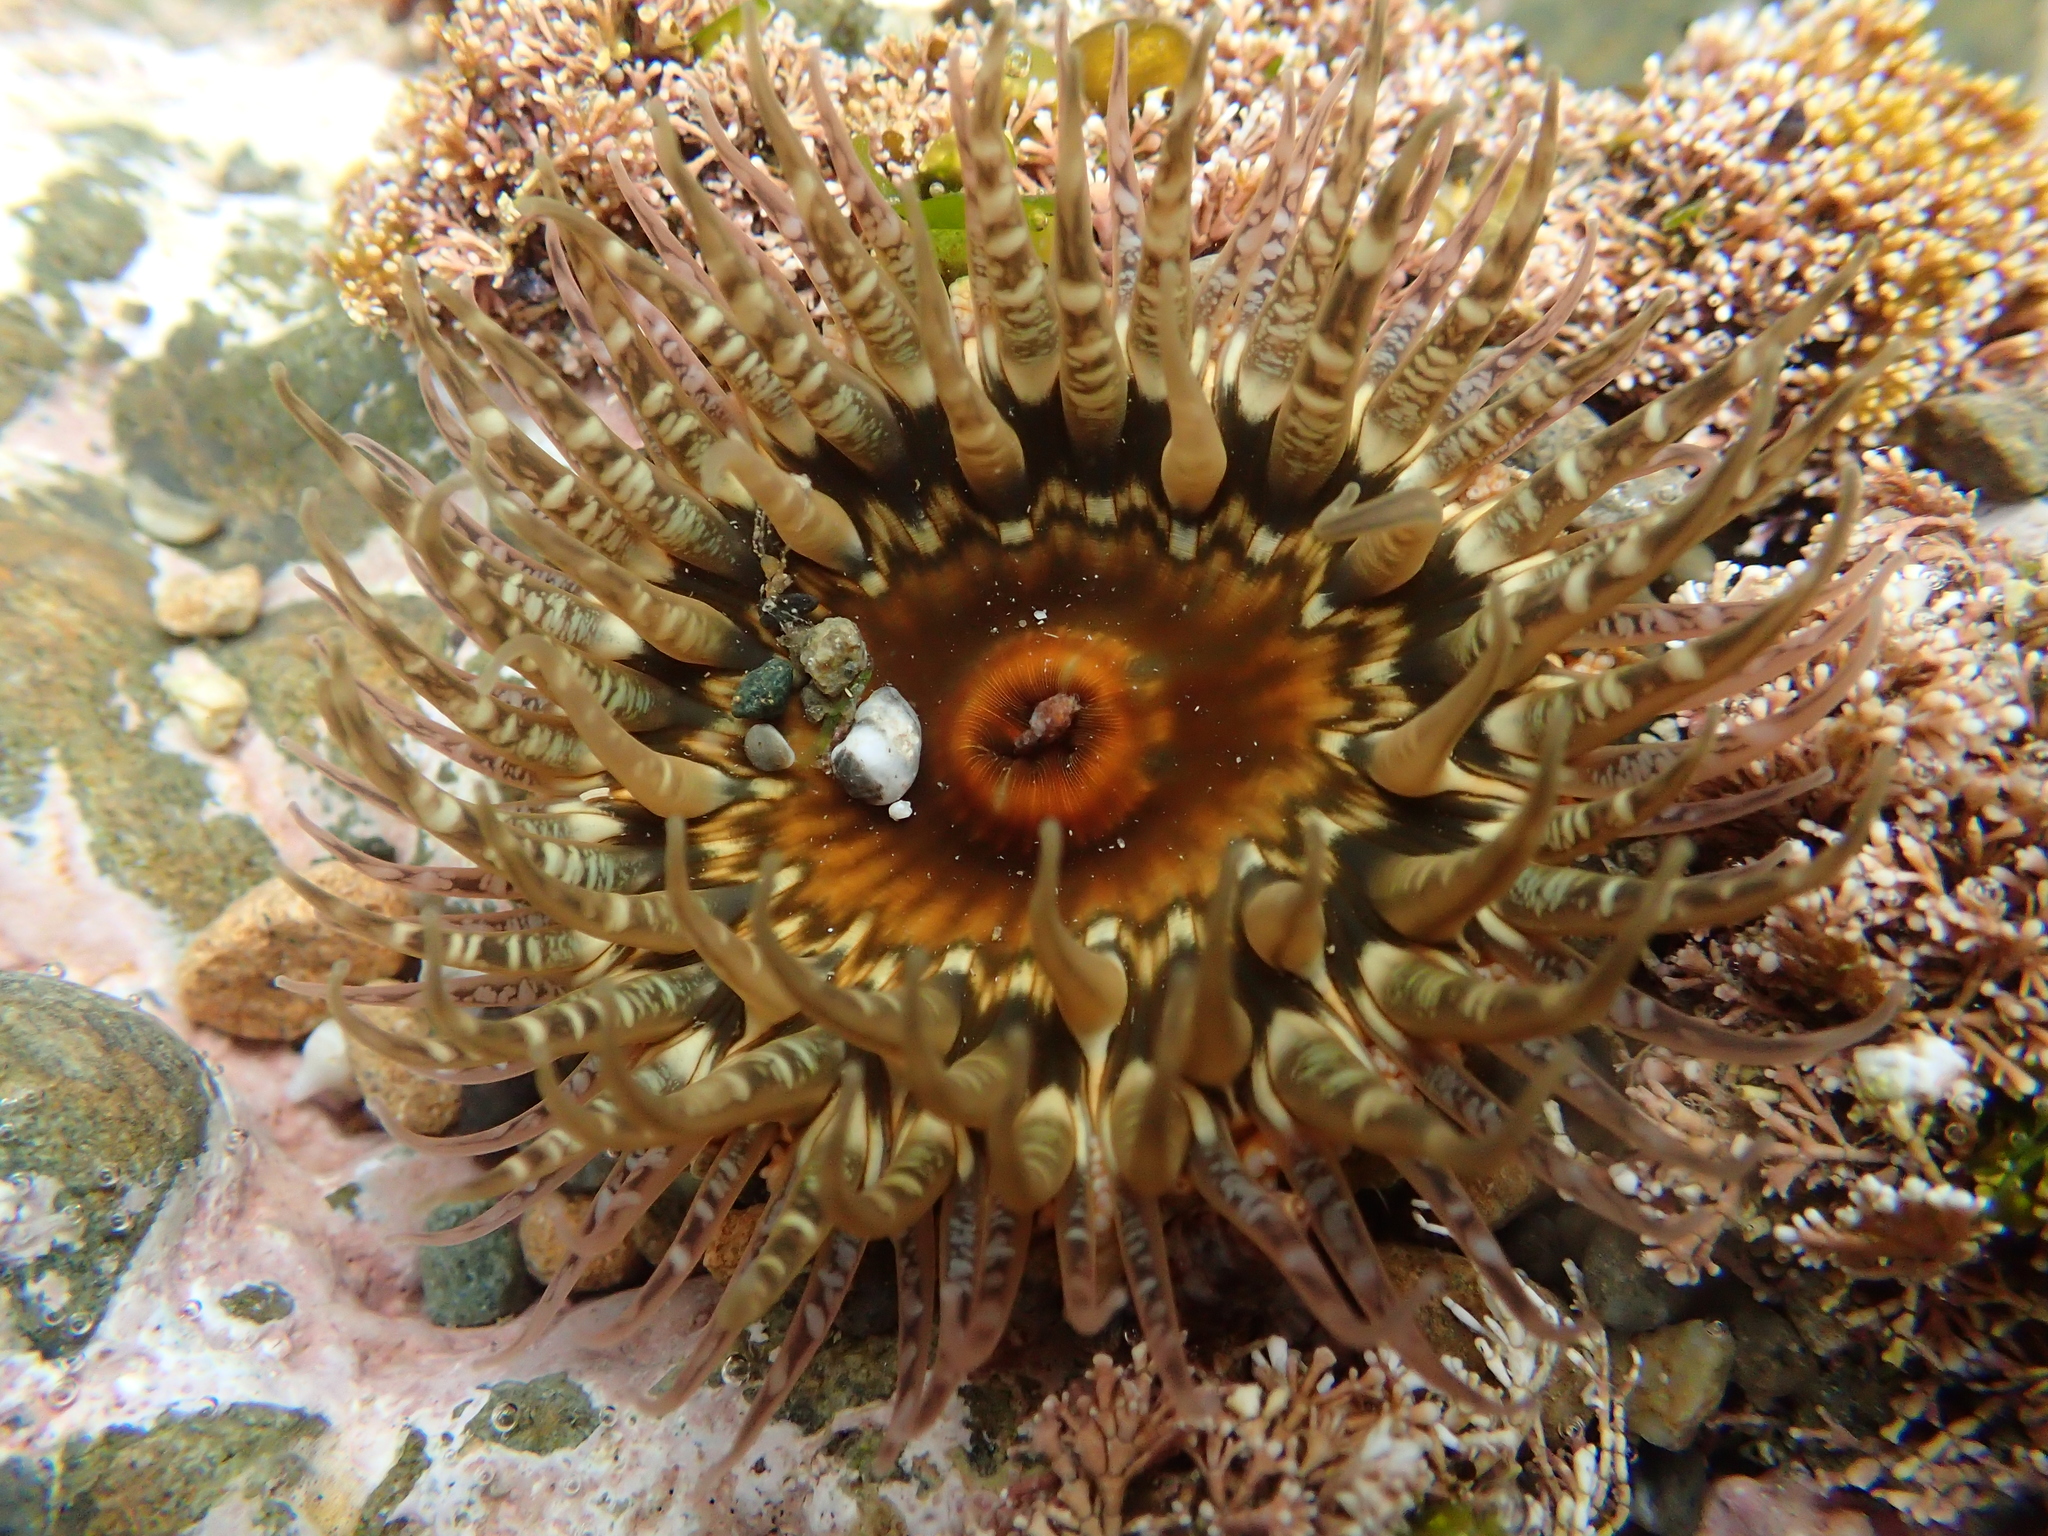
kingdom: Animalia
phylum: Cnidaria
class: Anthozoa
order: Actiniaria
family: Actiniidae
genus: Oulactis
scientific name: Oulactis muscosa
